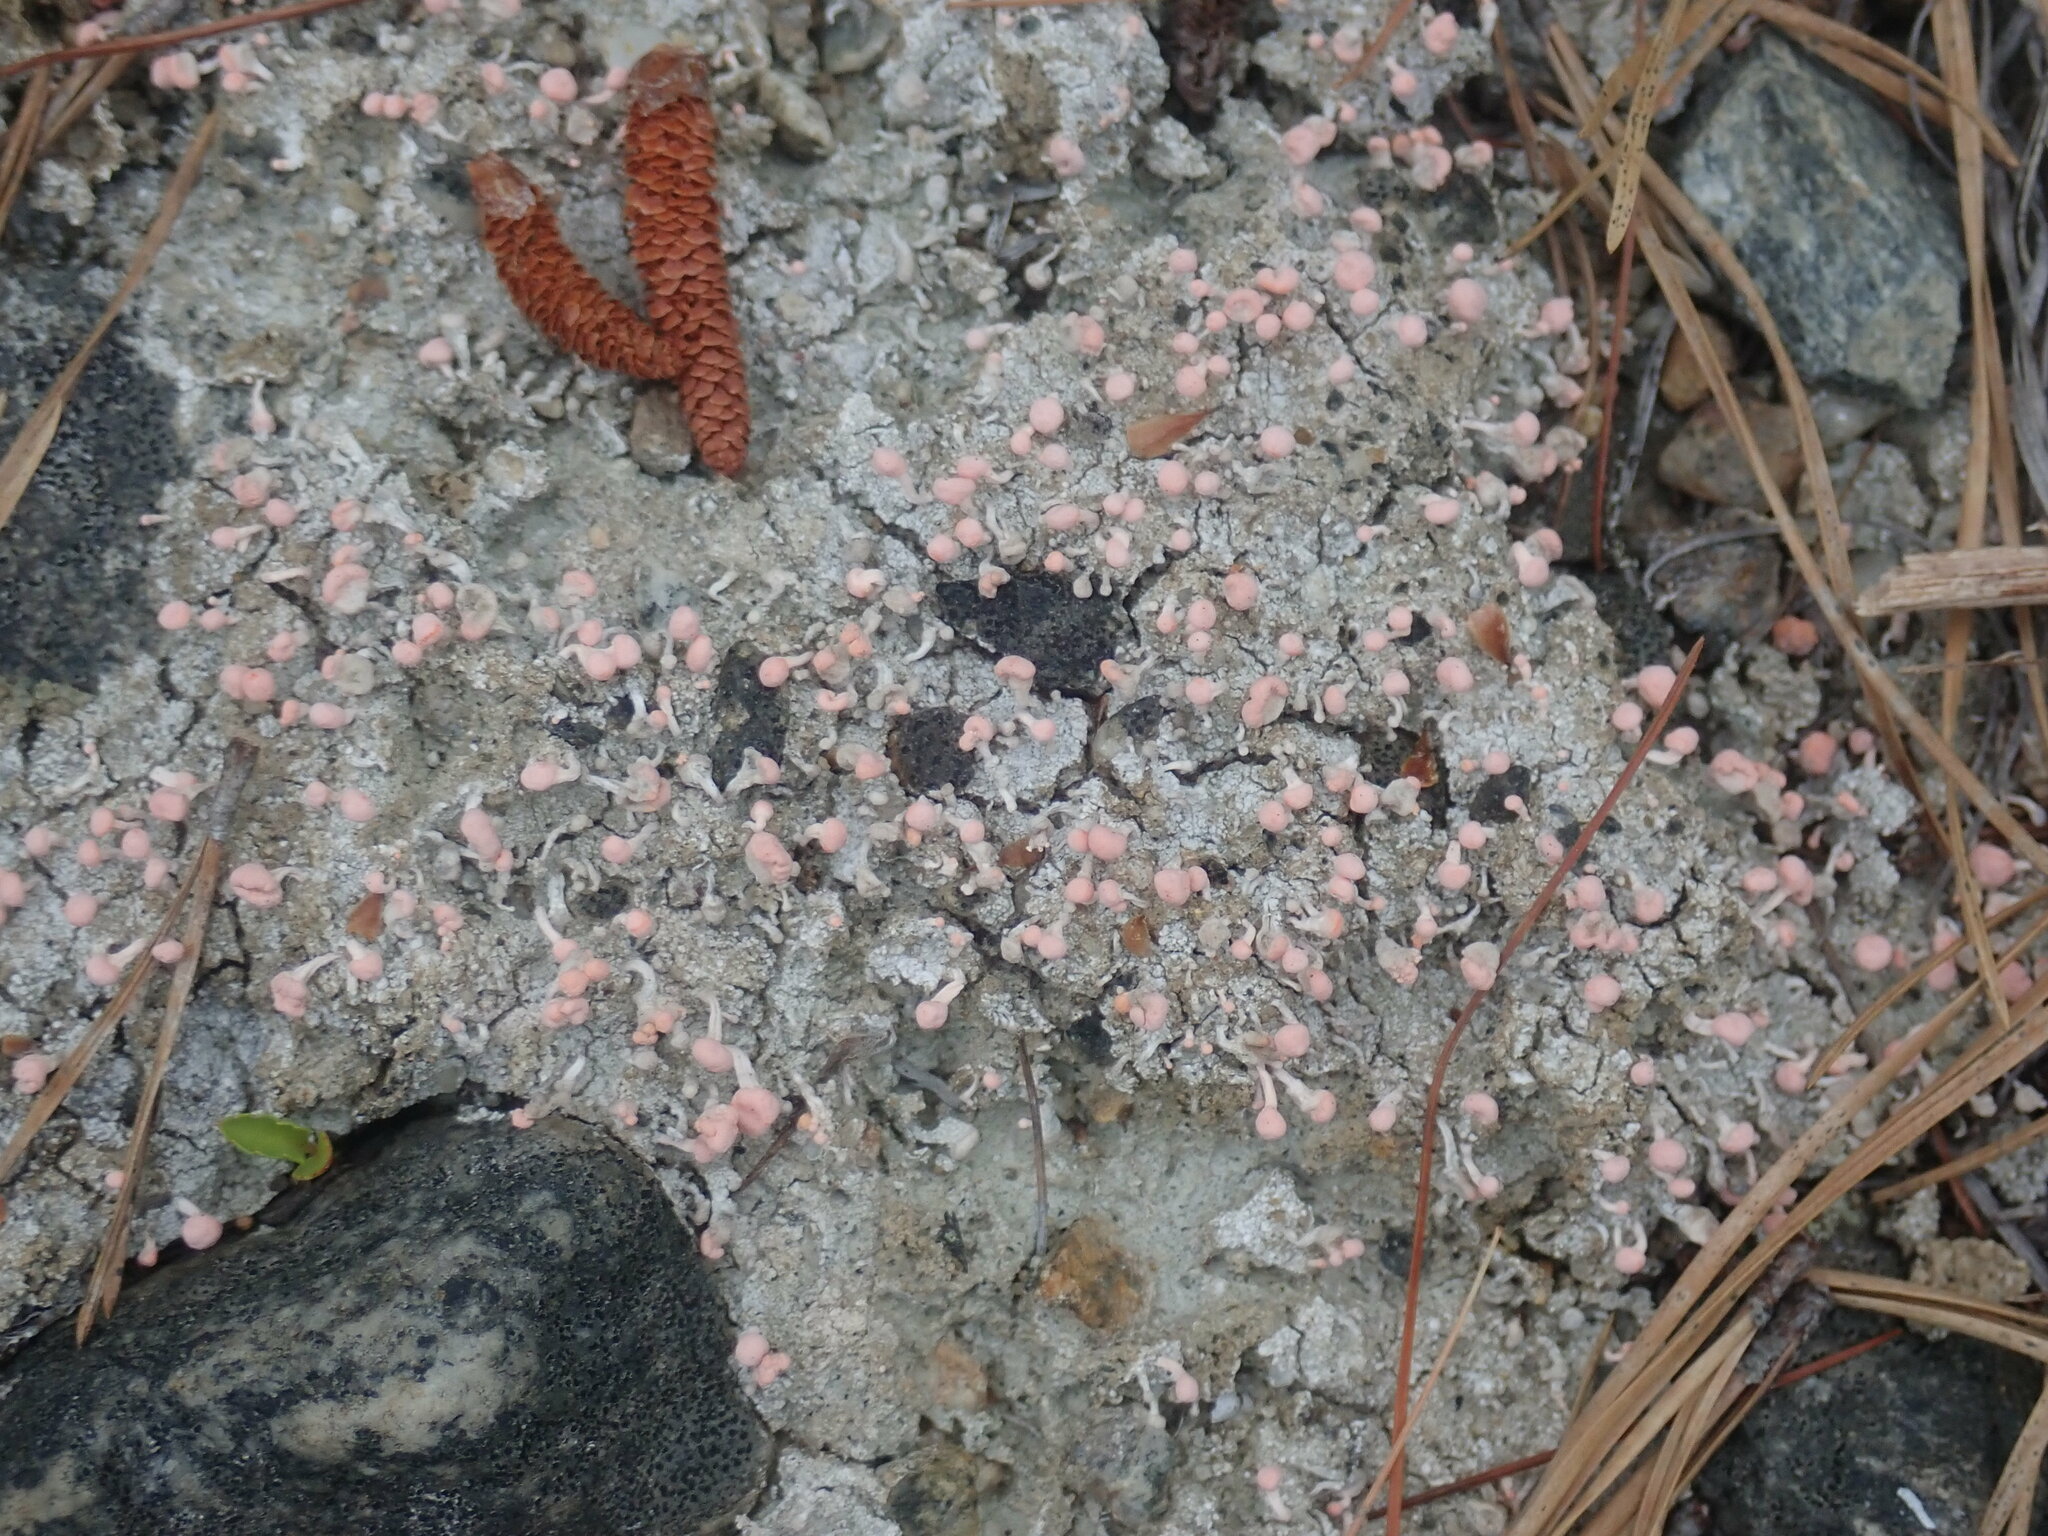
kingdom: Fungi
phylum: Ascomycota
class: Lecanoromycetes
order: Pertusariales
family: Icmadophilaceae
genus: Dibaeis
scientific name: Dibaeis baeomyces
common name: Pink earth lichen
